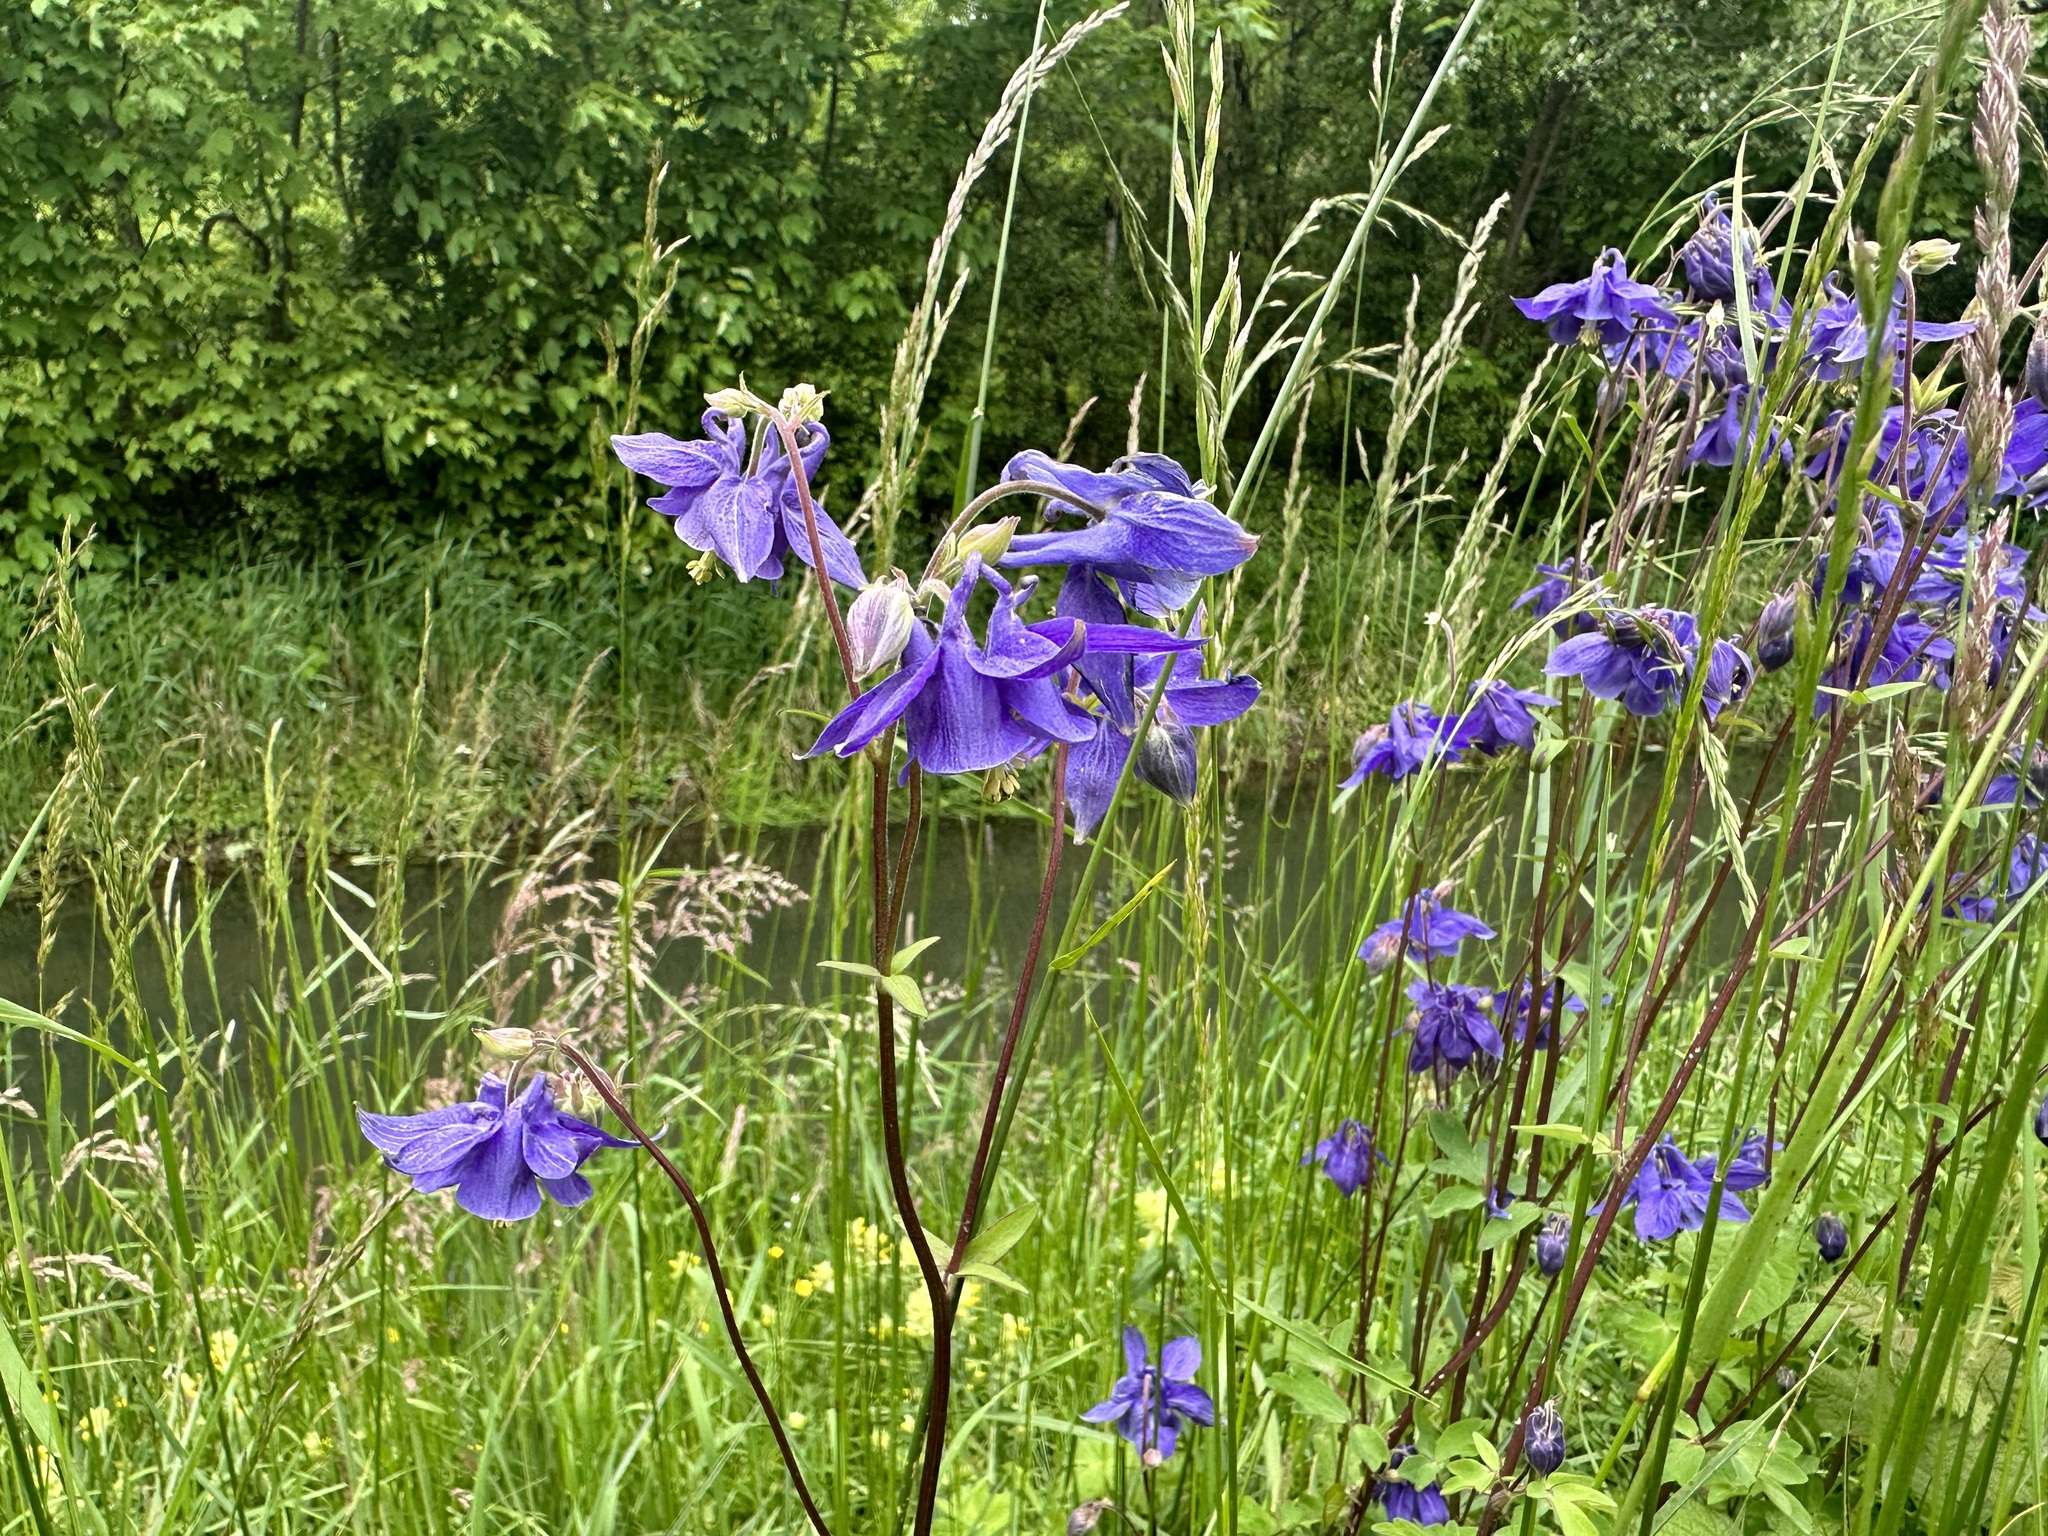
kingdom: Plantae
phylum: Tracheophyta
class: Magnoliopsida
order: Ranunculales
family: Ranunculaceae
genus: Aquilegia
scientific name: Aquilegia vulgaris
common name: Columbine
